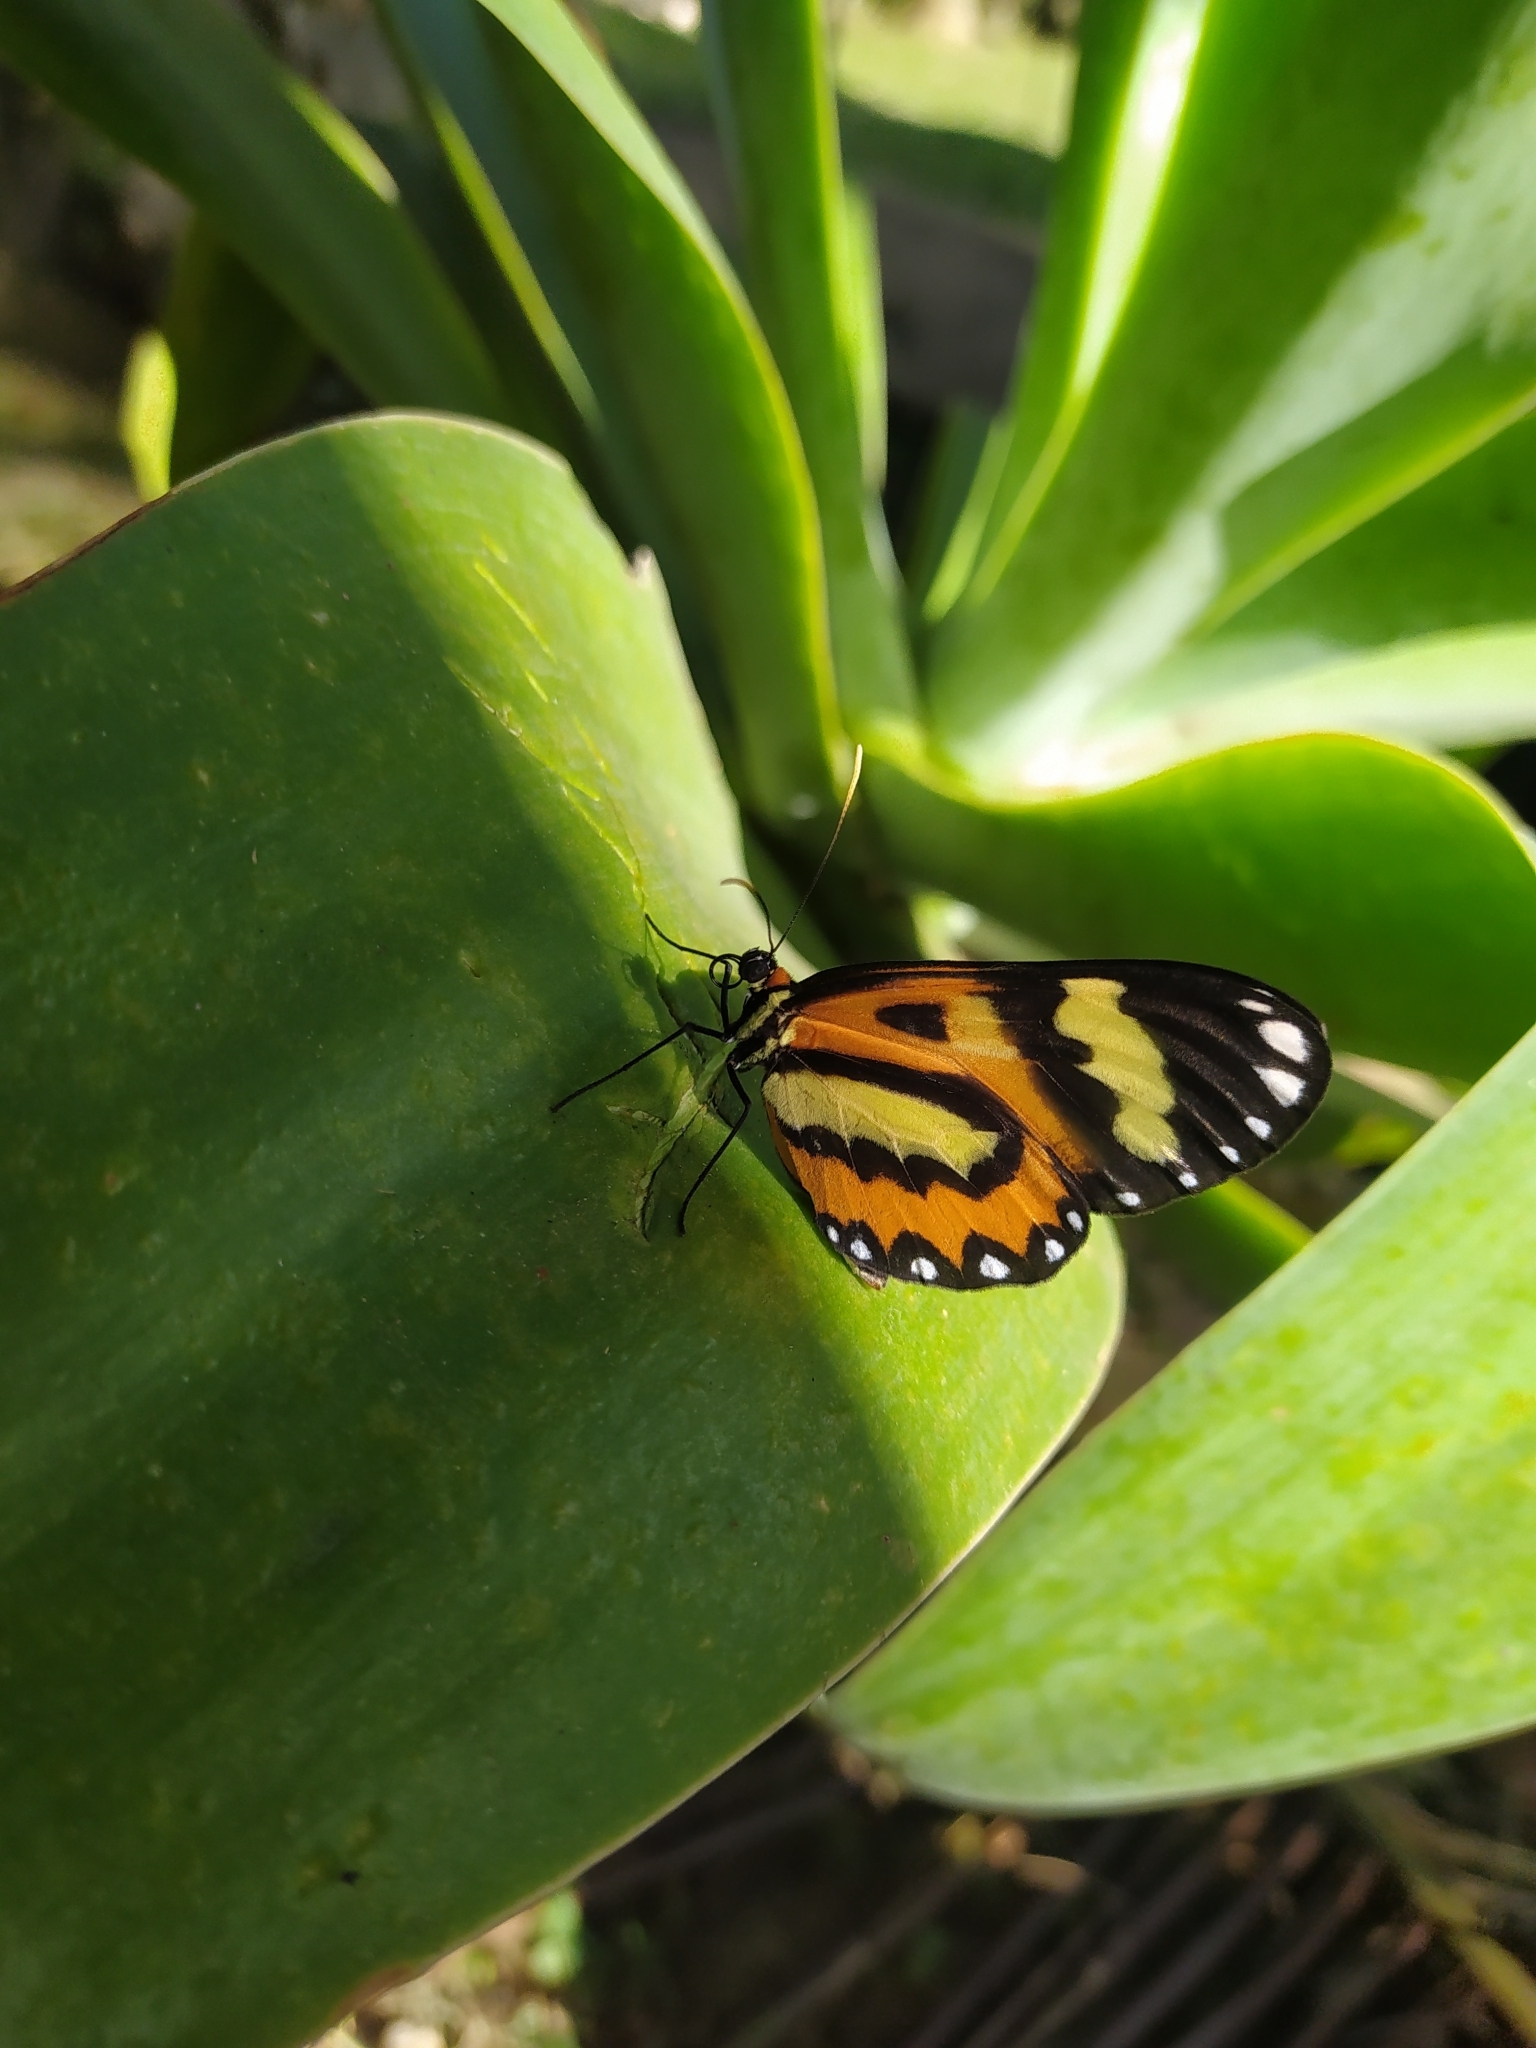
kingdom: Animalia
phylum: Arthropoda
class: Insecta
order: Lepidoptera
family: Nymphalidae
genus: Placidina
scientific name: Placidina euryanassa
